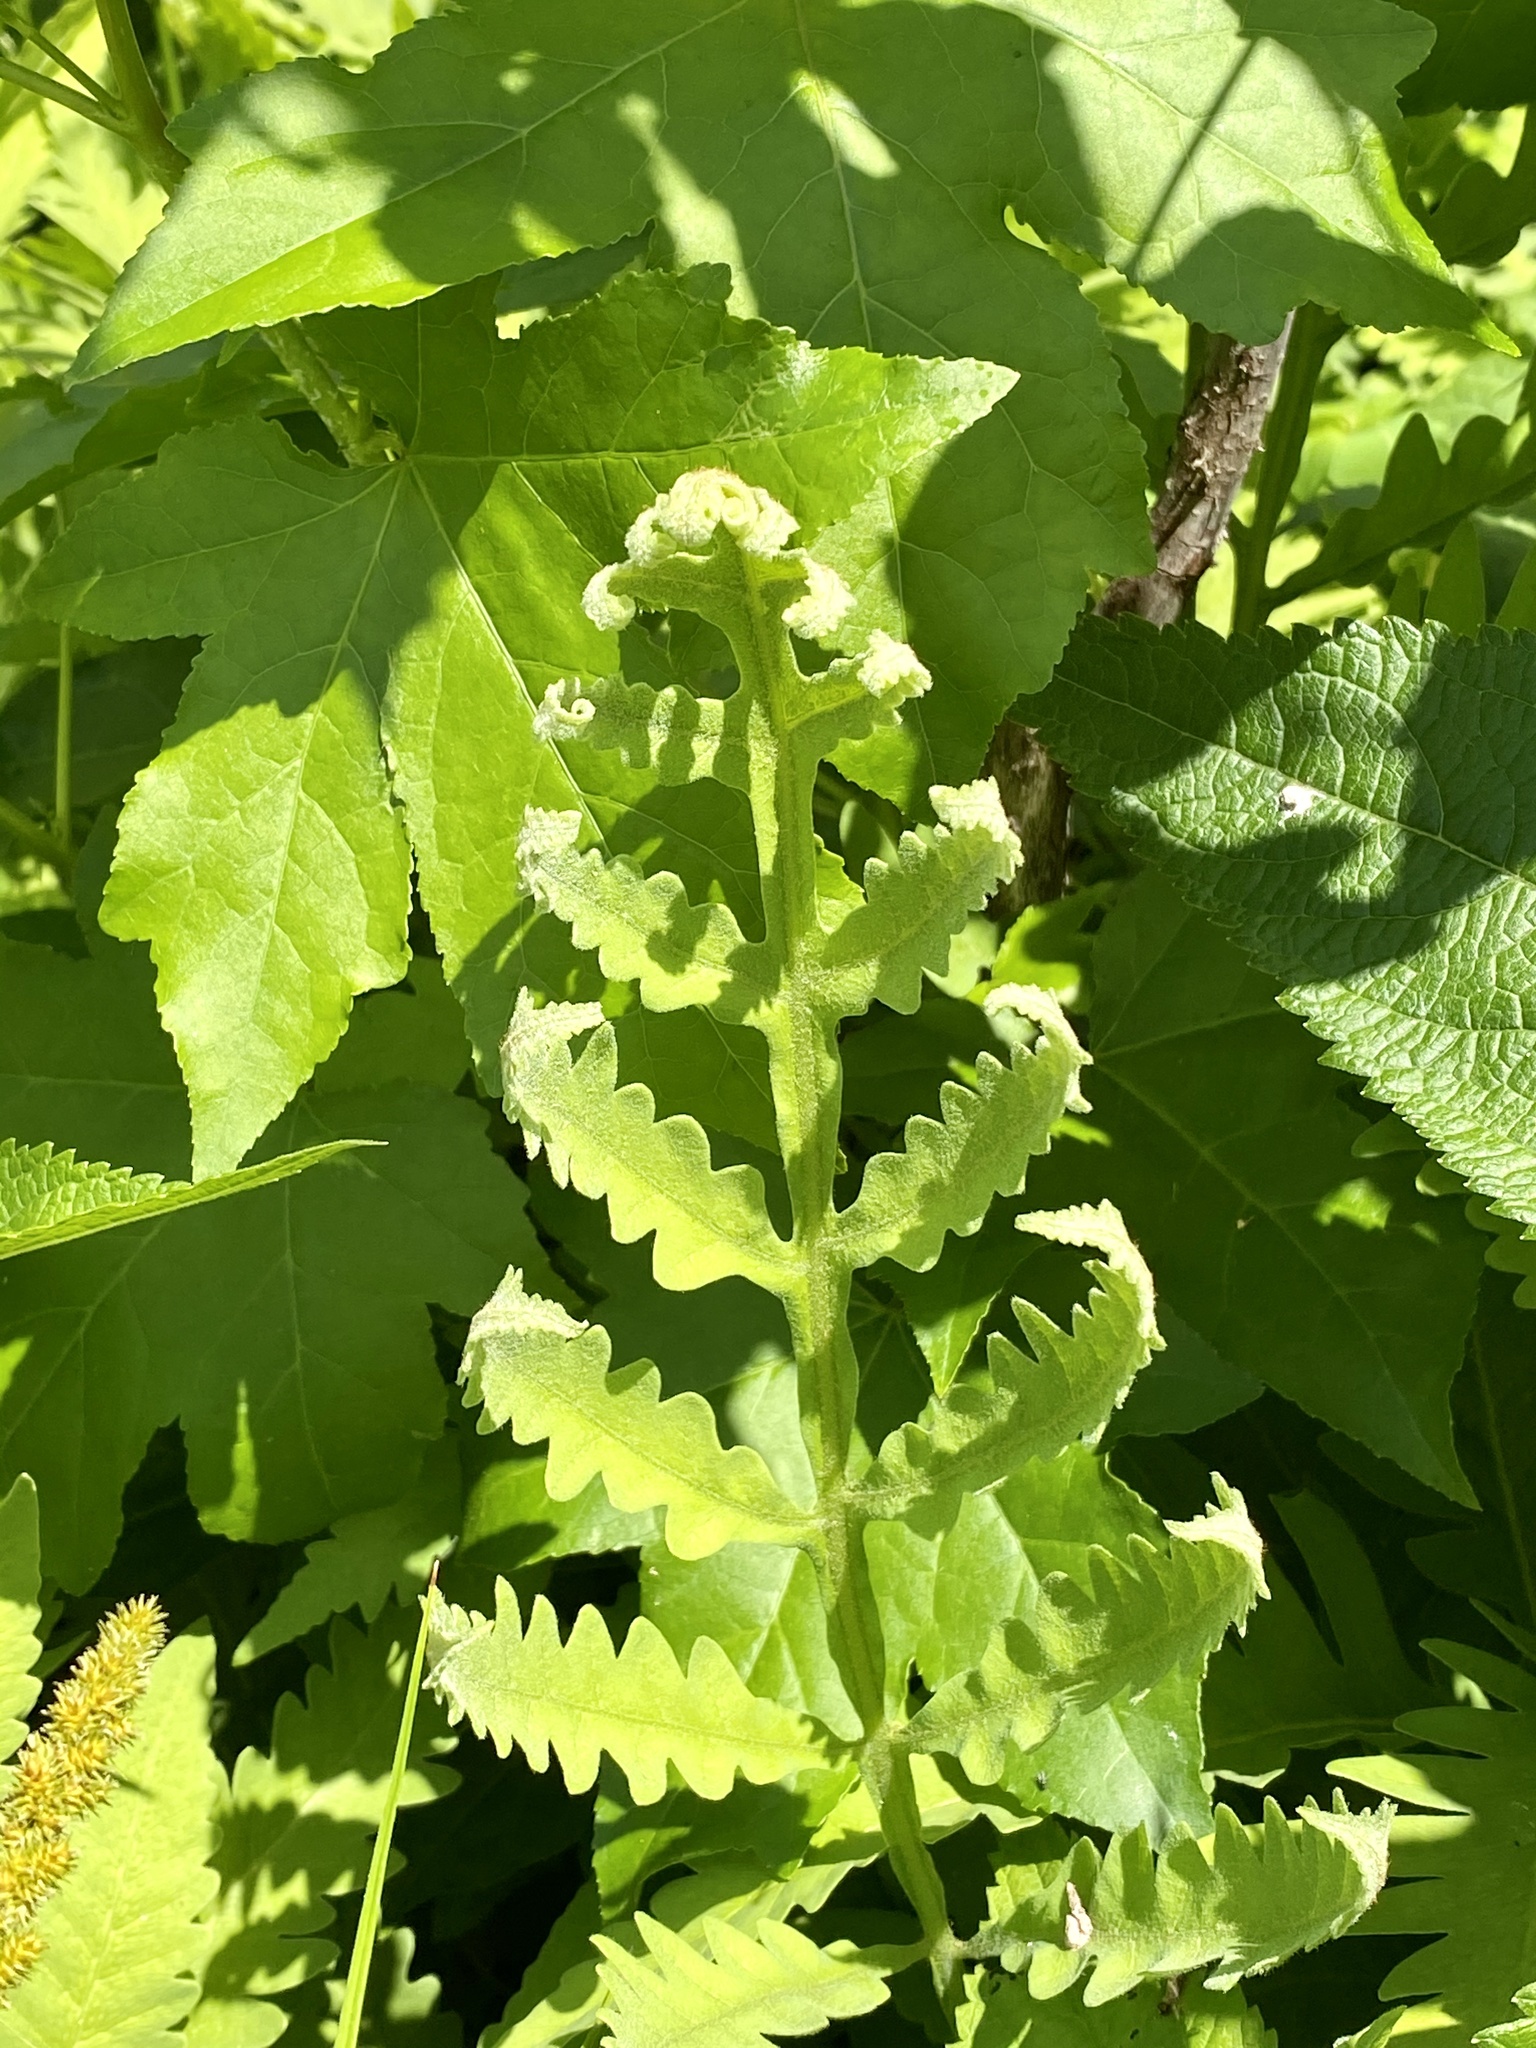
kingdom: Plantae
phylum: Tracheophyta
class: Polypodiopsida
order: Polypodiales
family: Onocleaceae
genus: Onoclea
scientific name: Onoclea sensibilis
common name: Sensitive fern
